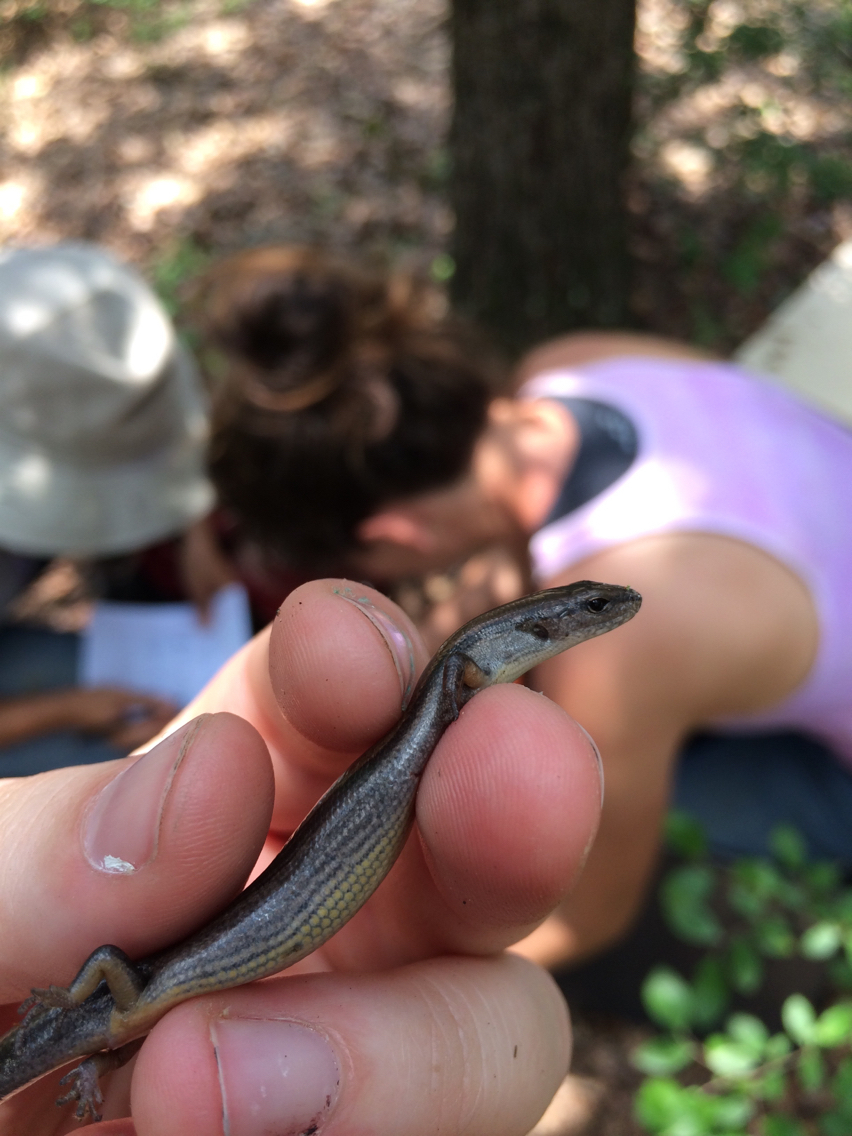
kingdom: Animalia
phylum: Chordata
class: Squamata
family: Scincidae
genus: Scincella
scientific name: Scincella lateralis
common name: Ground skink
